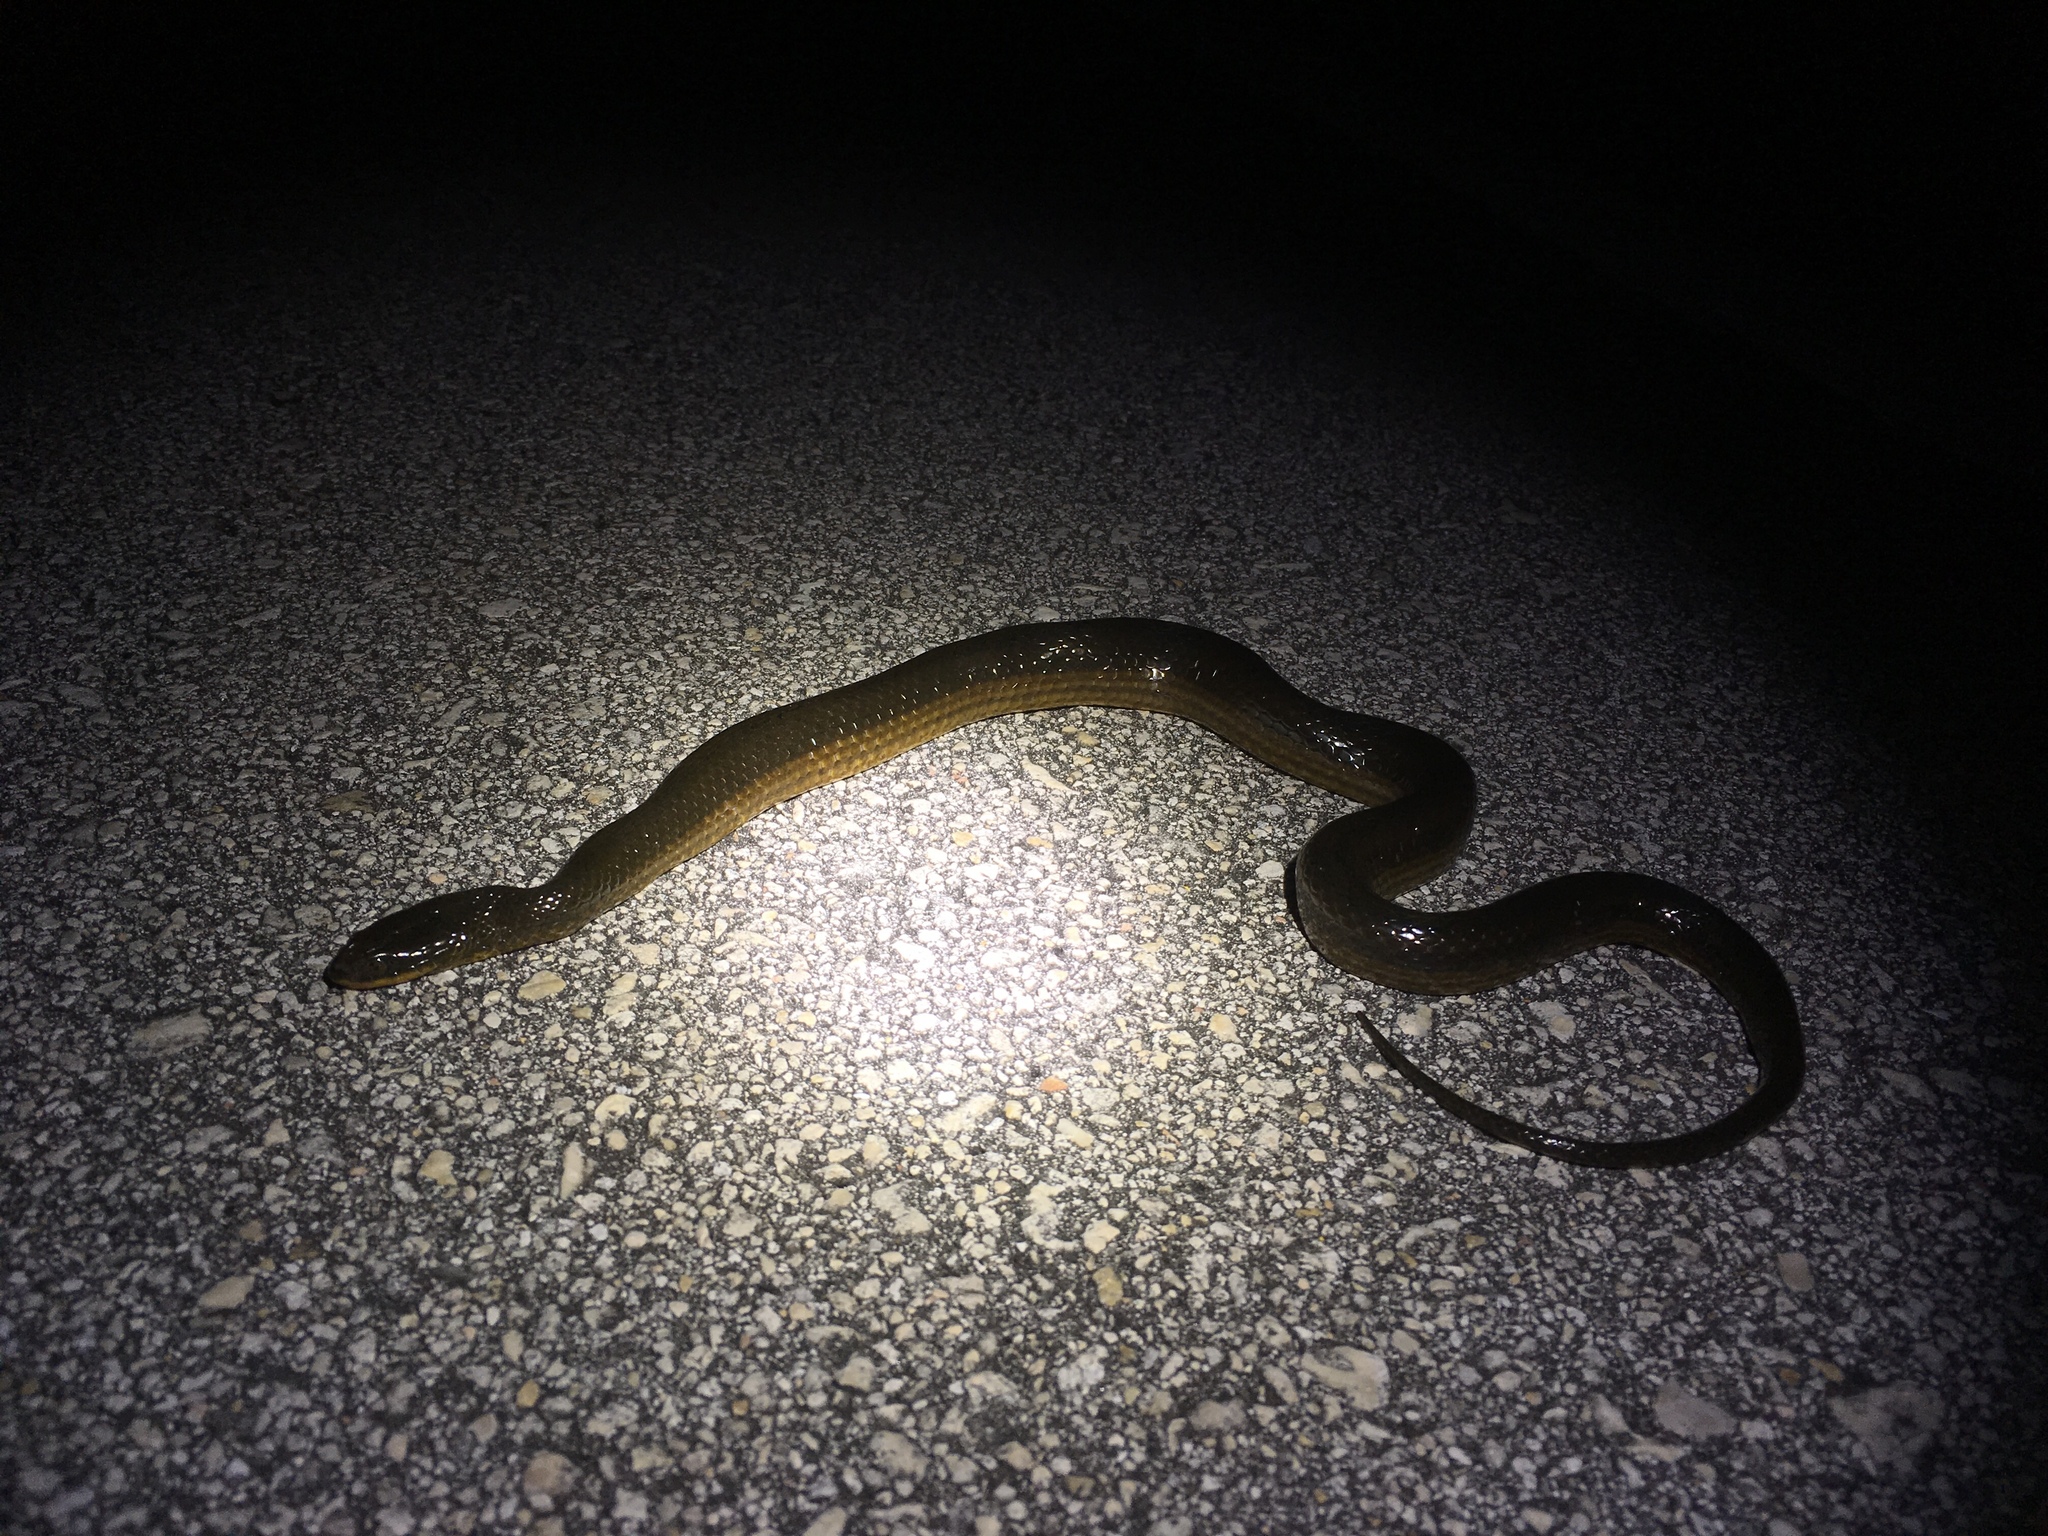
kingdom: Animalia
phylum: Chordata
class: Squamata
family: Colubridae
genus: Liodytes
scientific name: Liodytes alleni
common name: Striped crayfish snake
